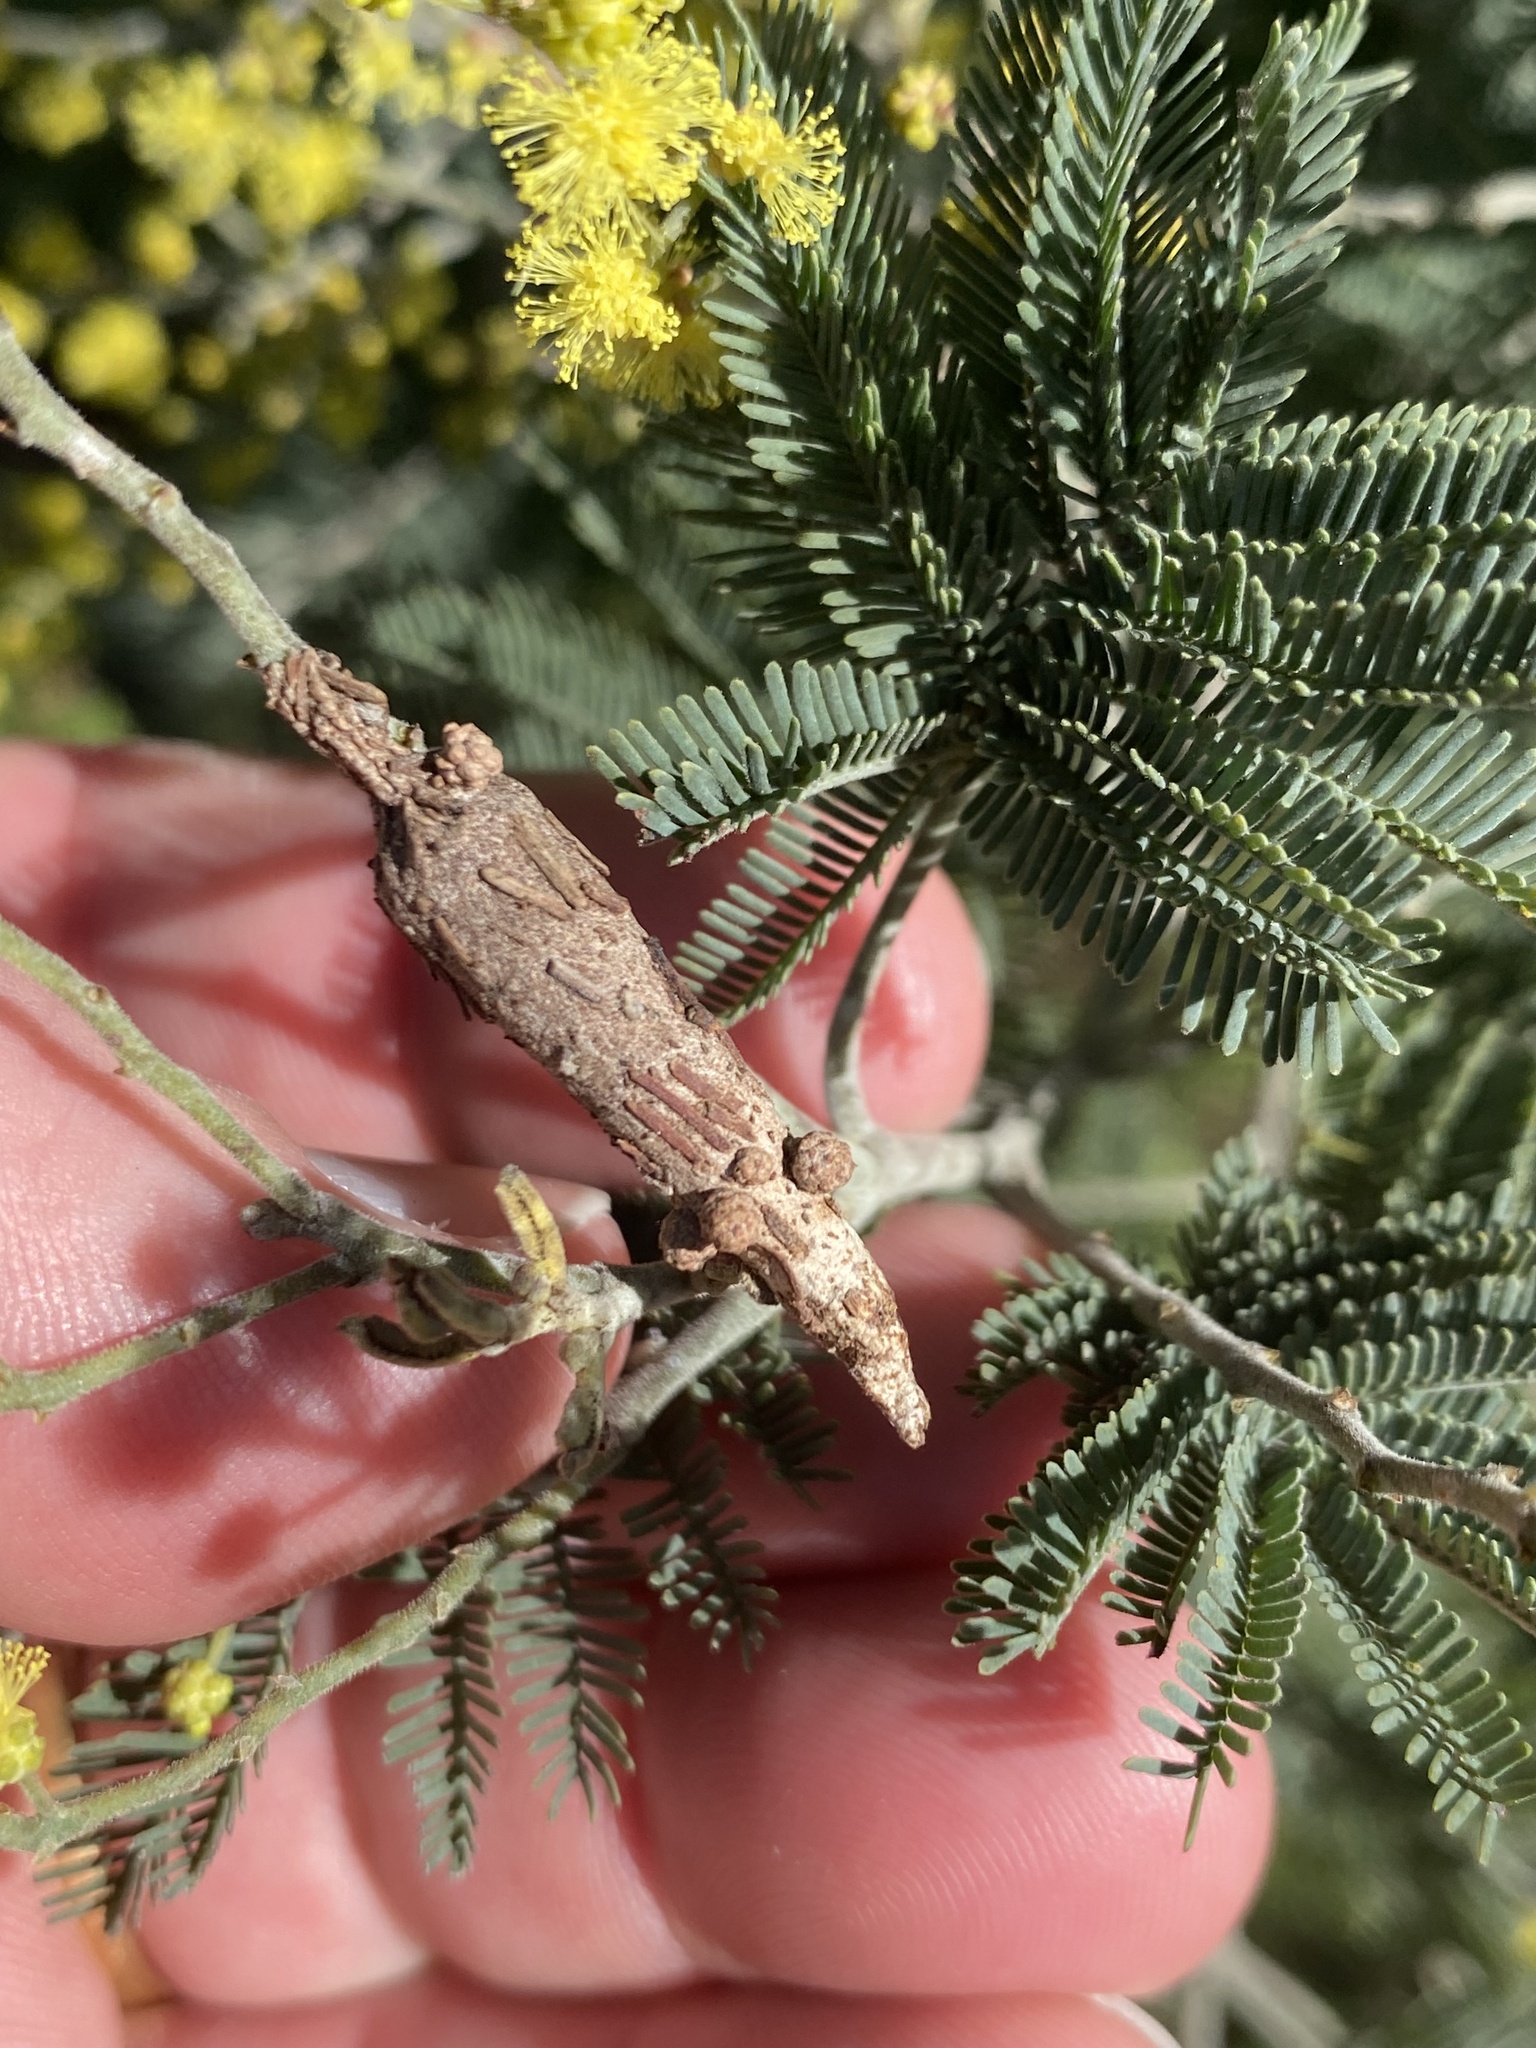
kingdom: Animalia
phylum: Arthropoda
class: Insecta
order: Lepidoptera
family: Psychidae
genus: Liothula
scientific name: Liothula omnivora
